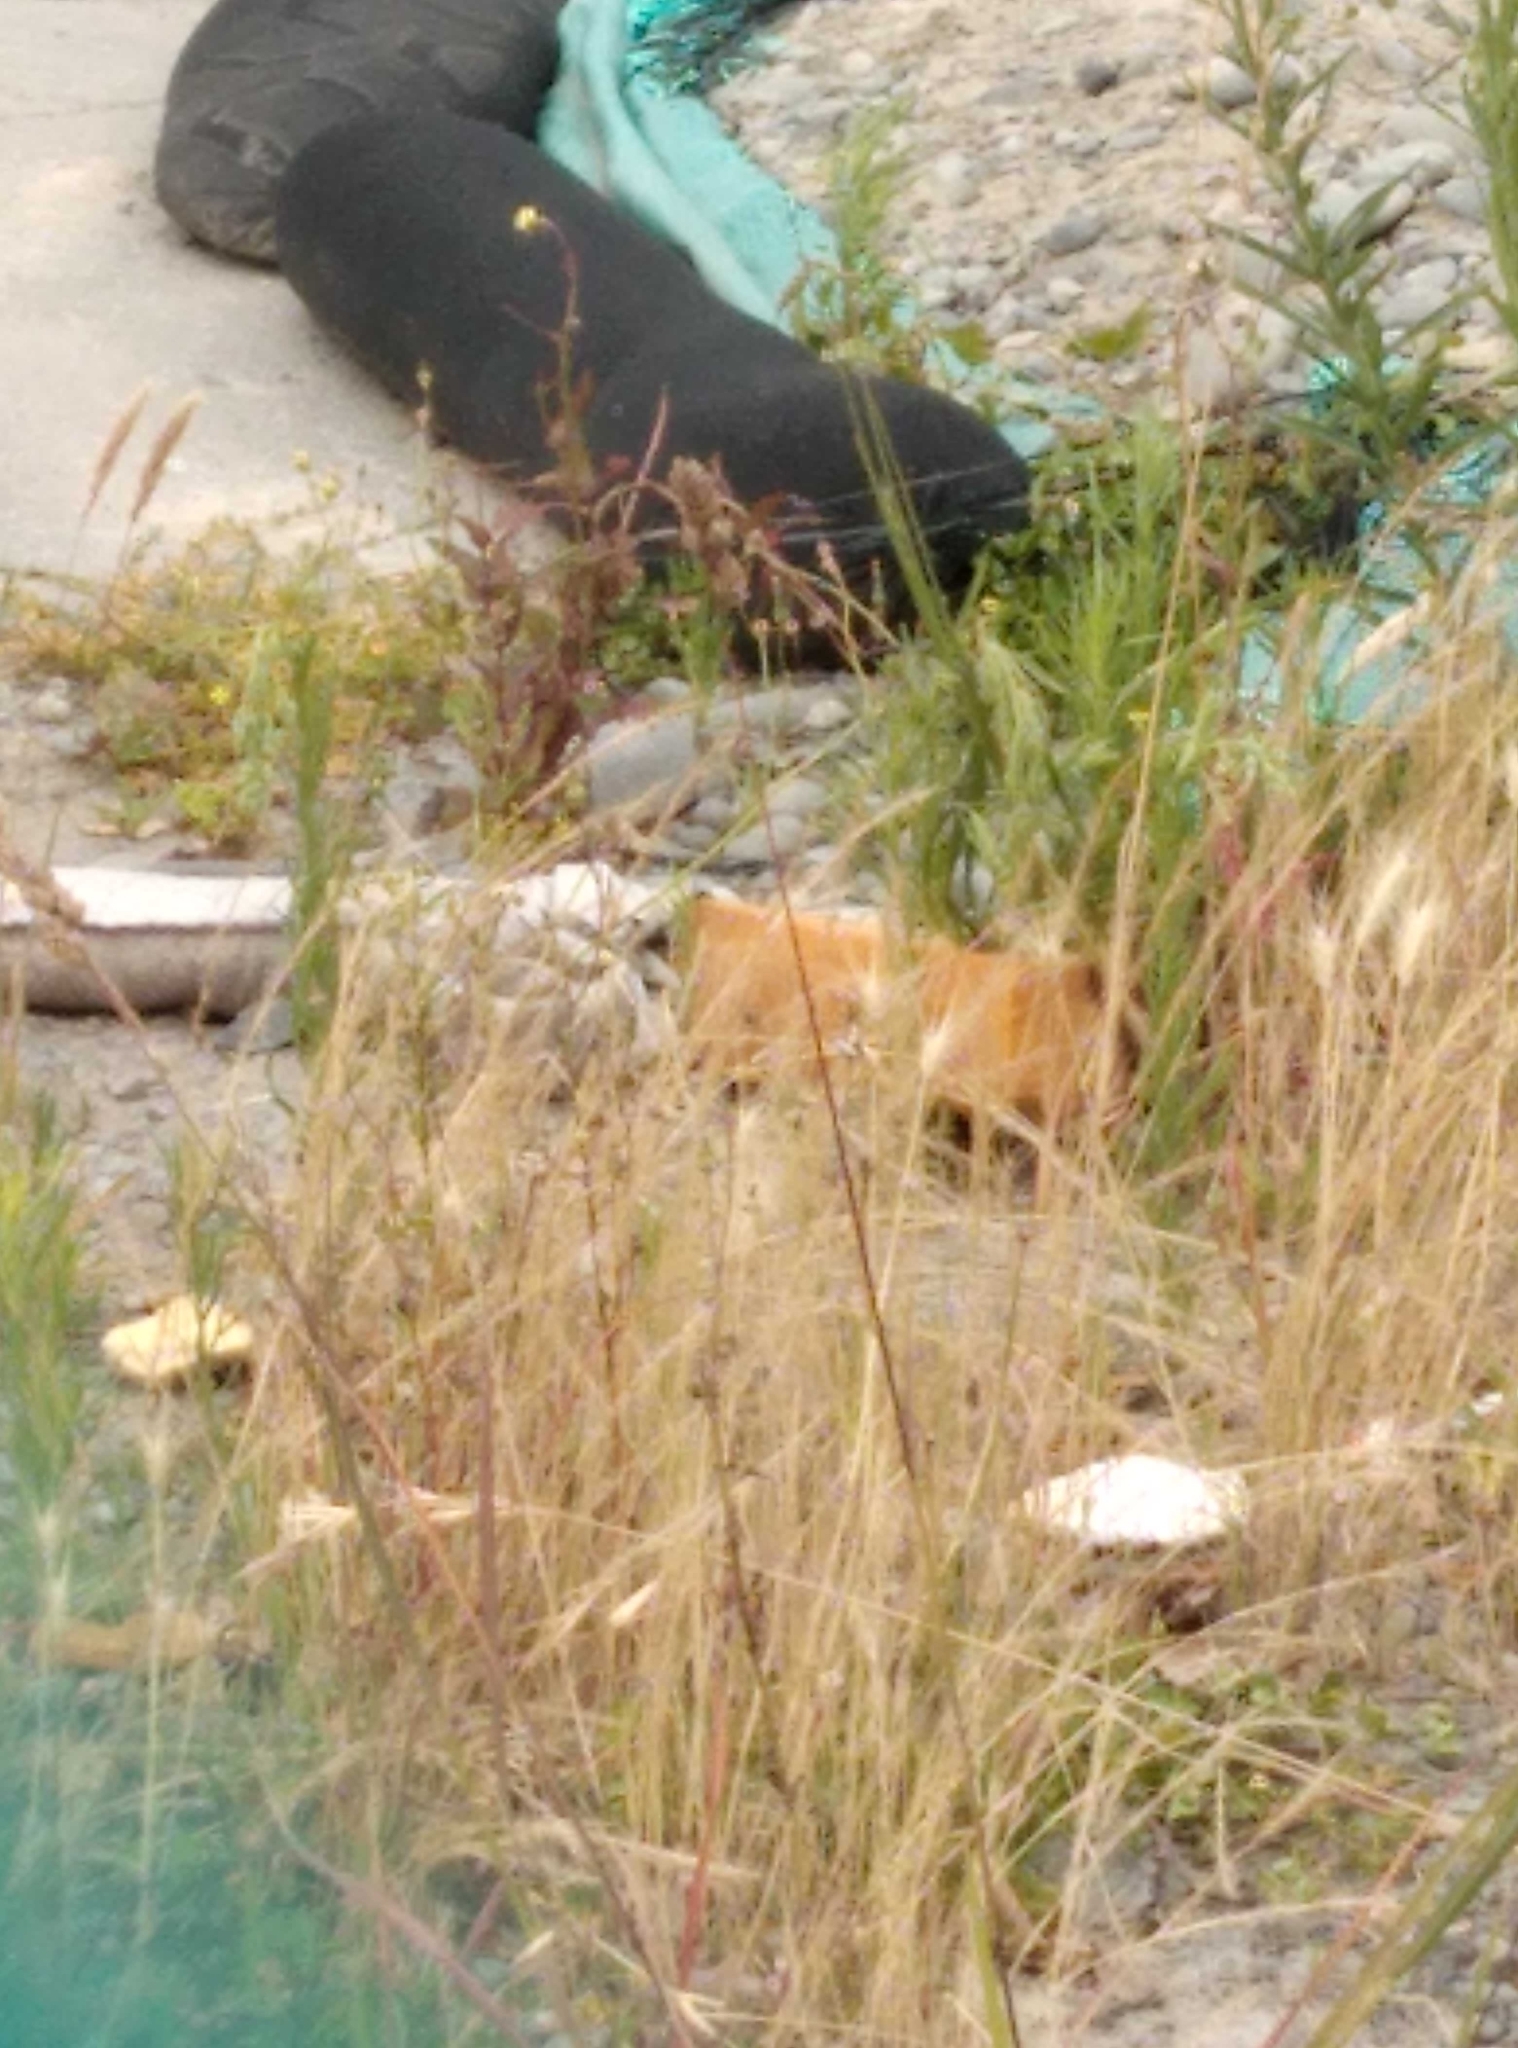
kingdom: Plantae
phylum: Tracheophyta
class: Liliopsida
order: Poales
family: Poaceae
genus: Dactylis
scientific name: Dactylis glomerata
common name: Orchardgrass
